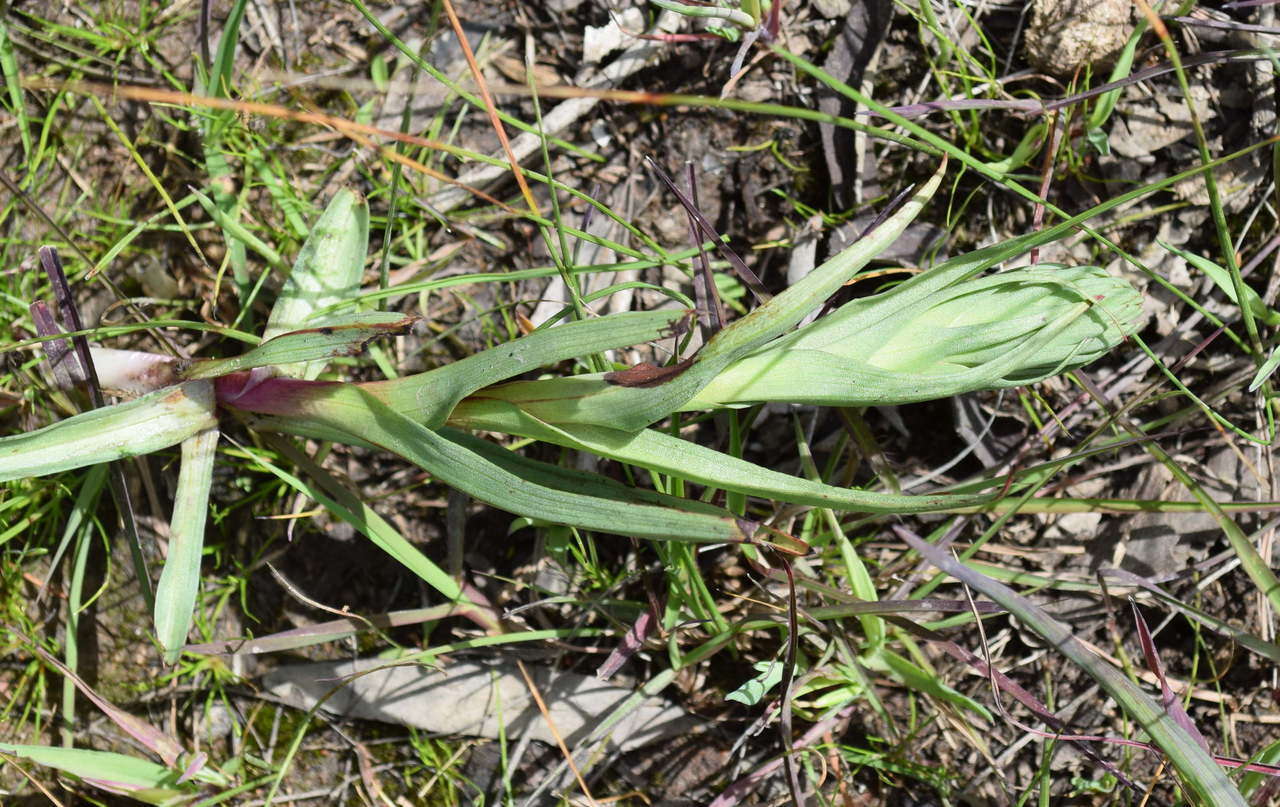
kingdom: Plantae
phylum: Tracheophyta
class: Liliopsida
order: Asparagales
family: Orchidaceae
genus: Disa
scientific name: Disa bracteata
